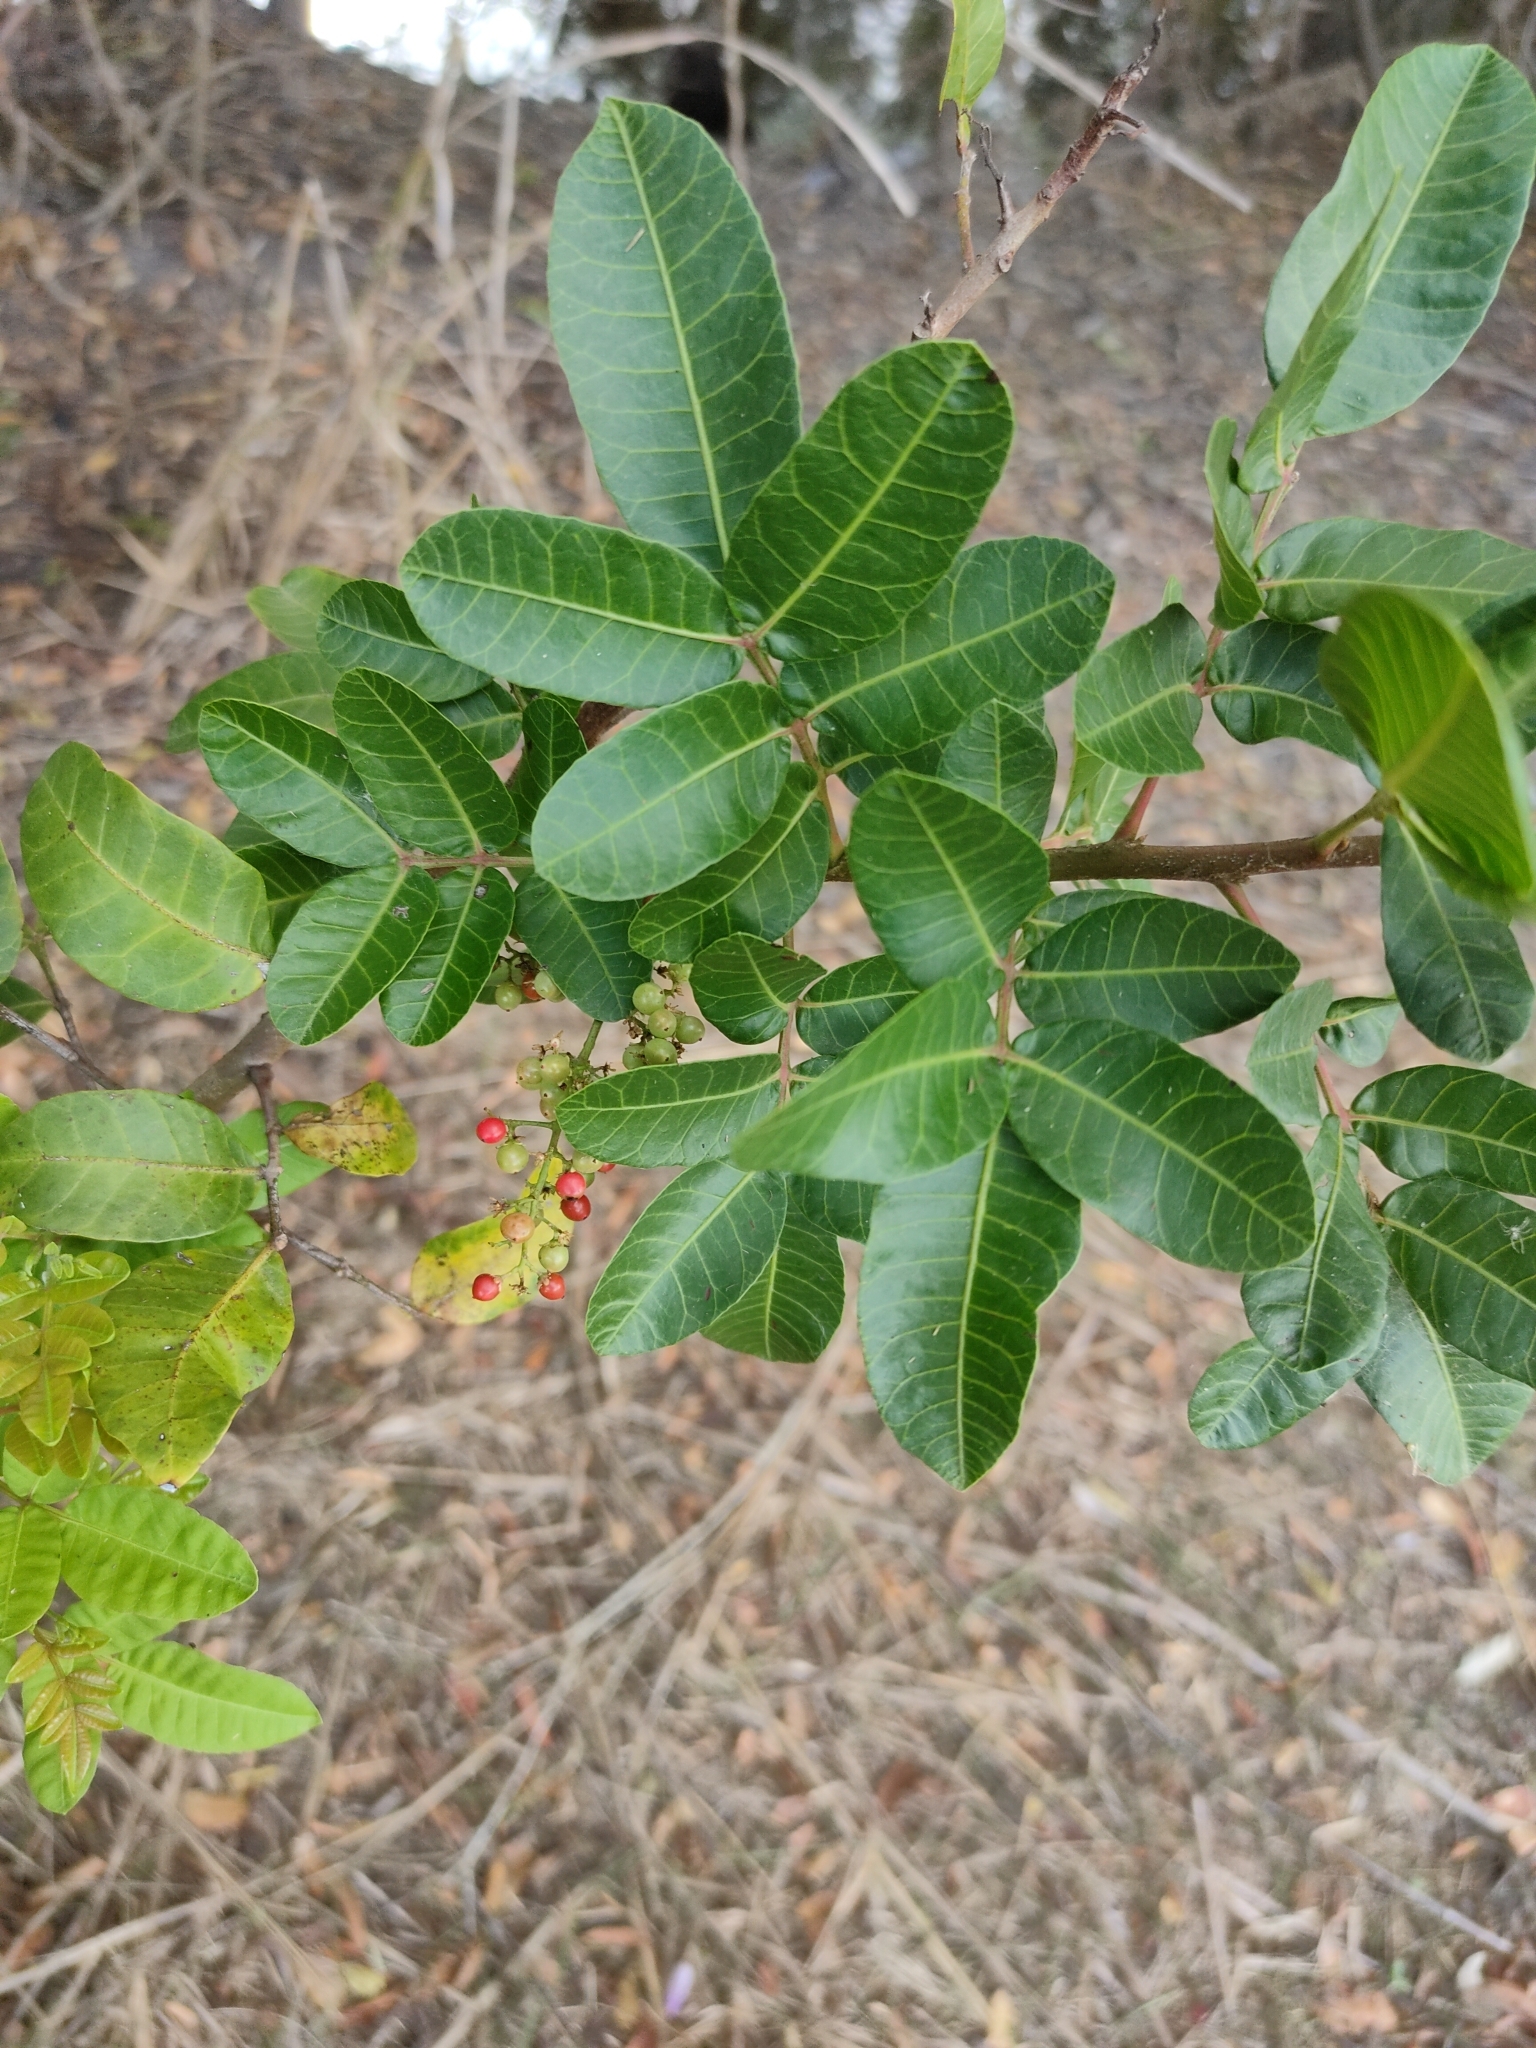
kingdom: Plantae
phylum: Tracheophyta
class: Magnoliopsida
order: Sapindales
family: Anacardiaceae
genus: Schinus
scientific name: Schinus terebinthifolia
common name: Brazilian peppertree
